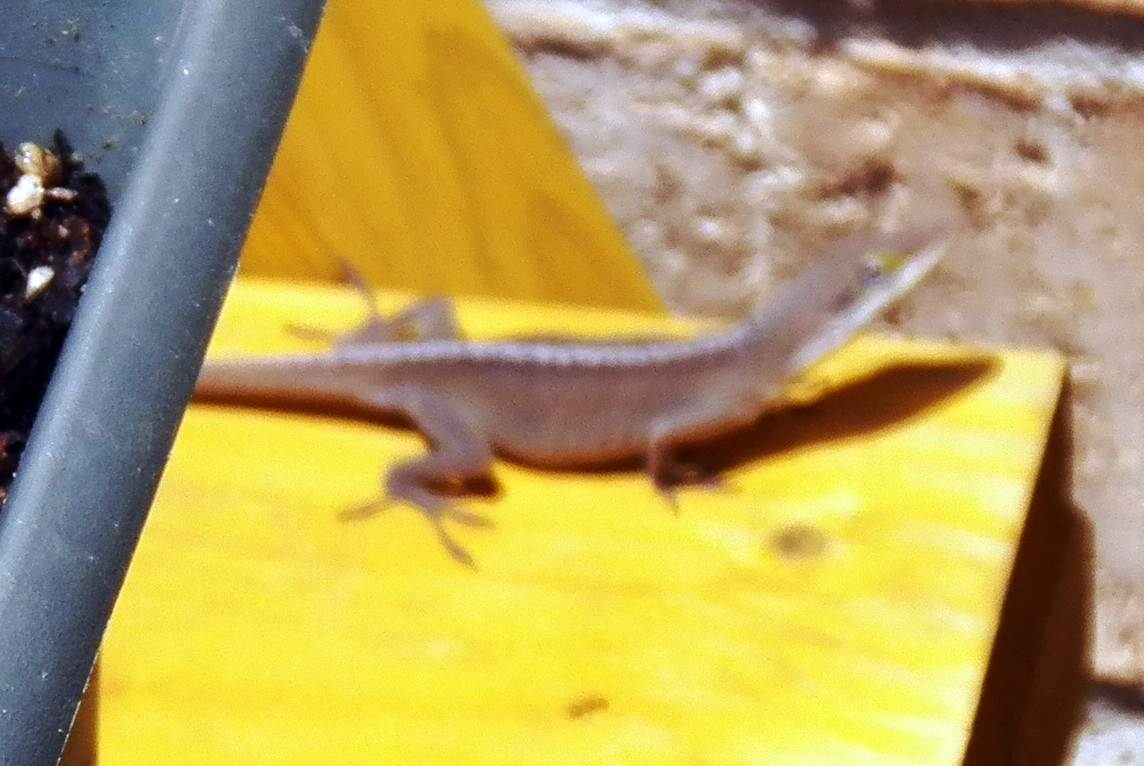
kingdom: Animalia
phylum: Chordata
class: Squamata
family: Dactyloidae
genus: Anolis
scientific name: Anolis carolinensis
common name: Green anole
